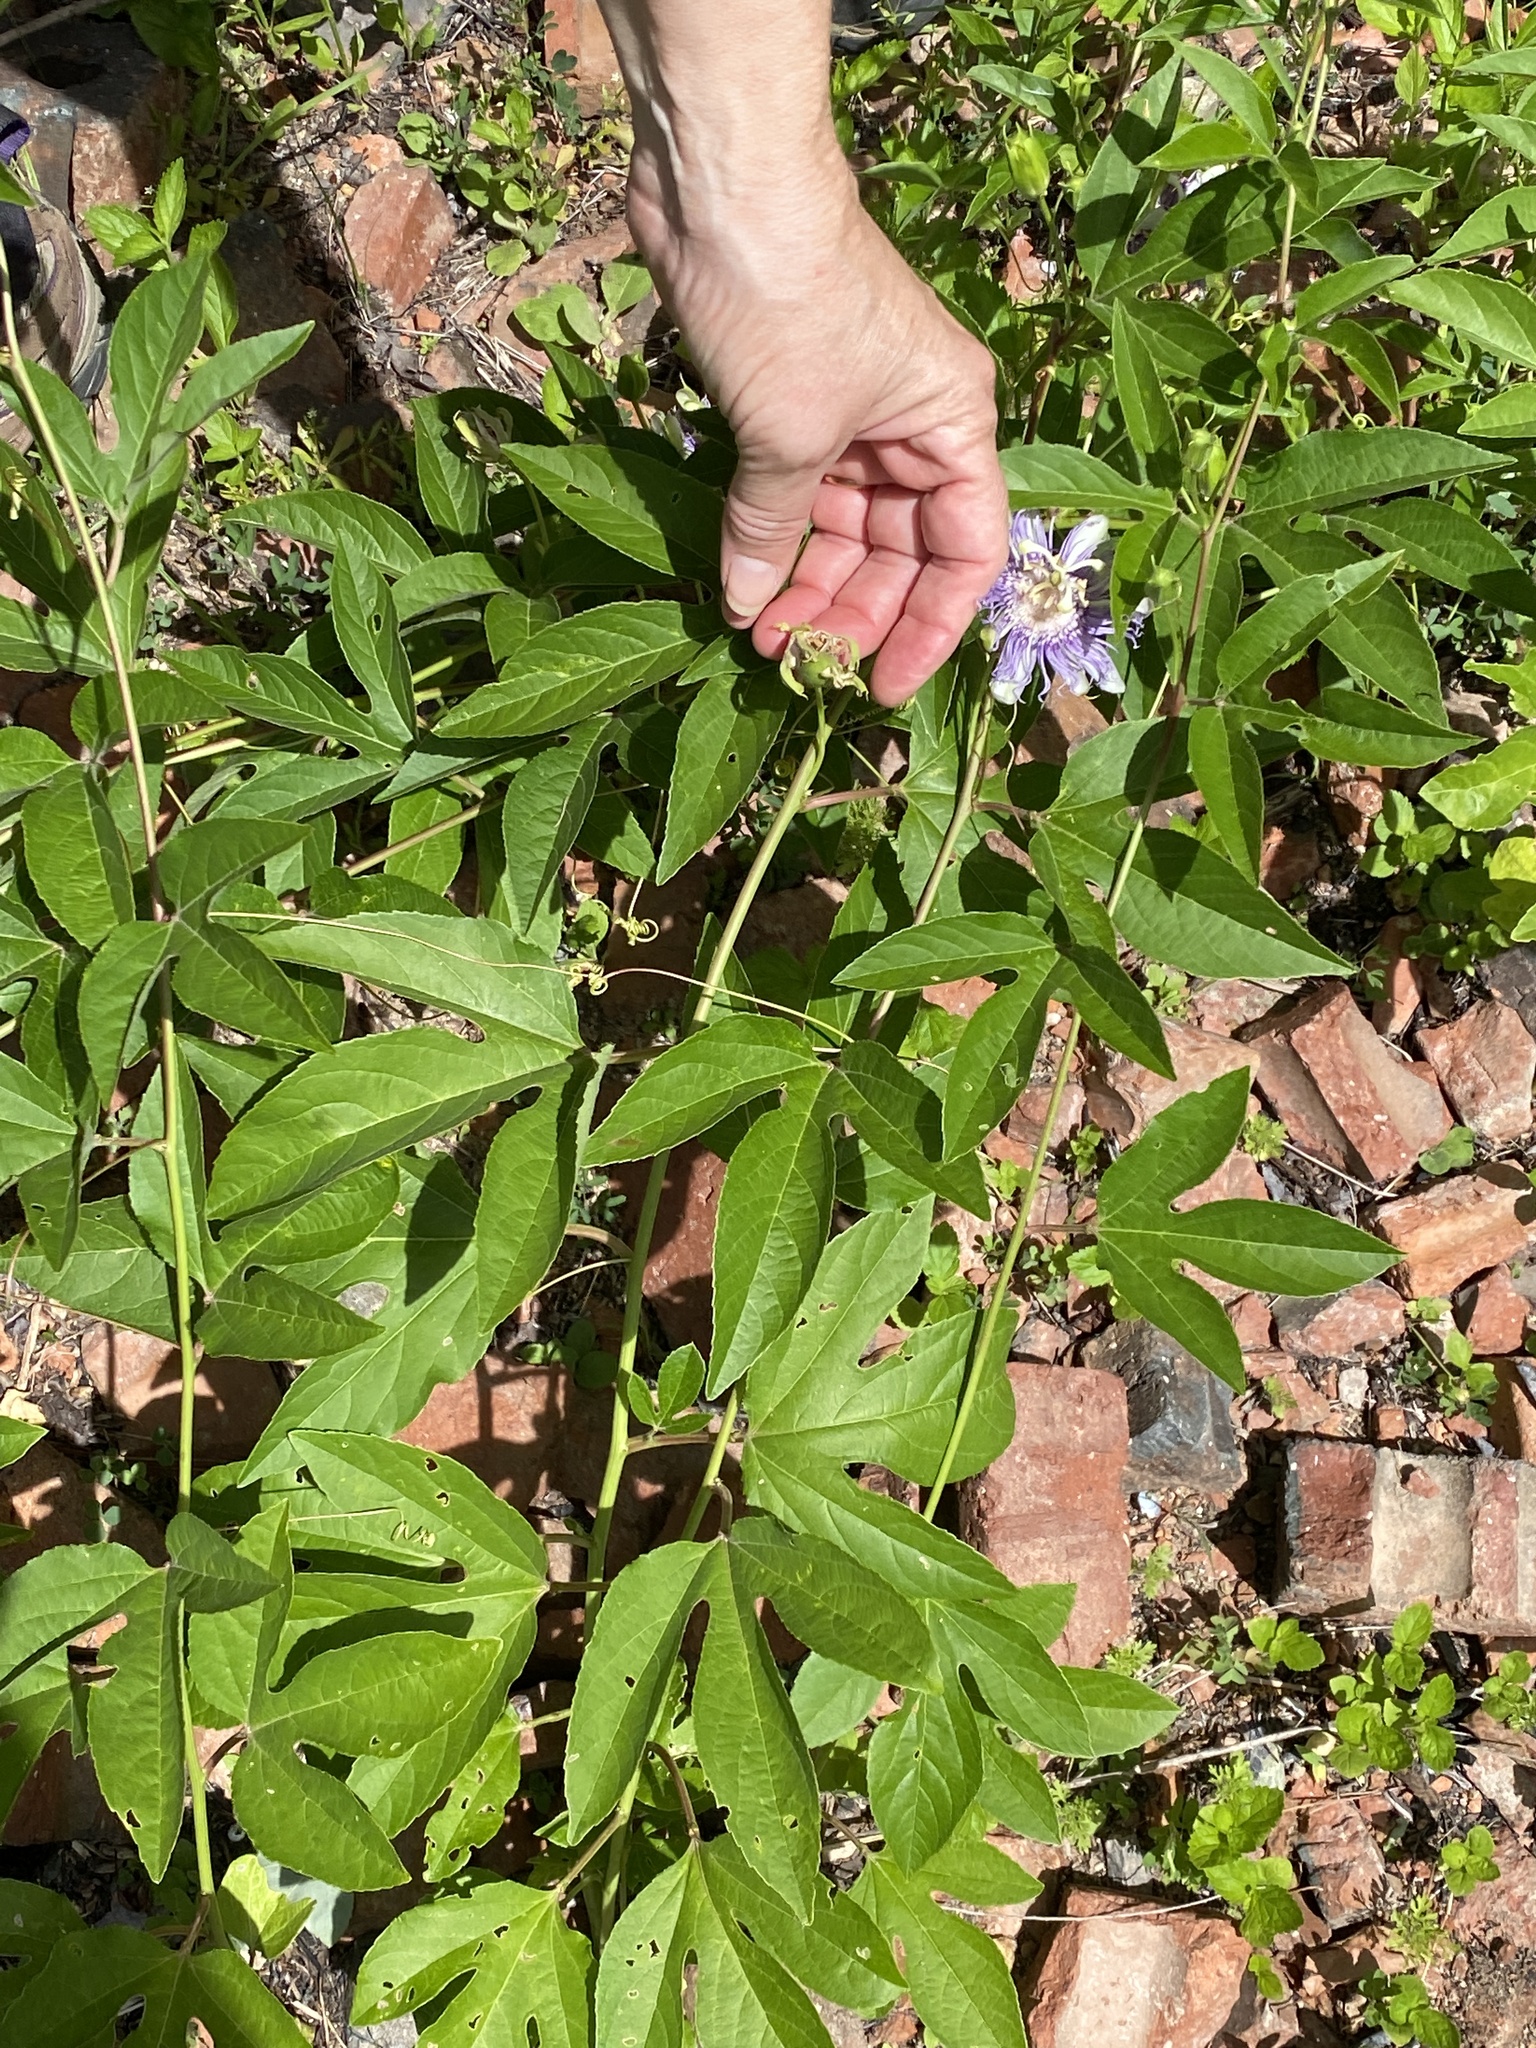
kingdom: Plantae
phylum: Tracheophyta
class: Magnoliopsida
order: Malpighiales
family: Passifloraceae
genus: Passiflora
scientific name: Passiflora incarnata
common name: Apricot-vine
